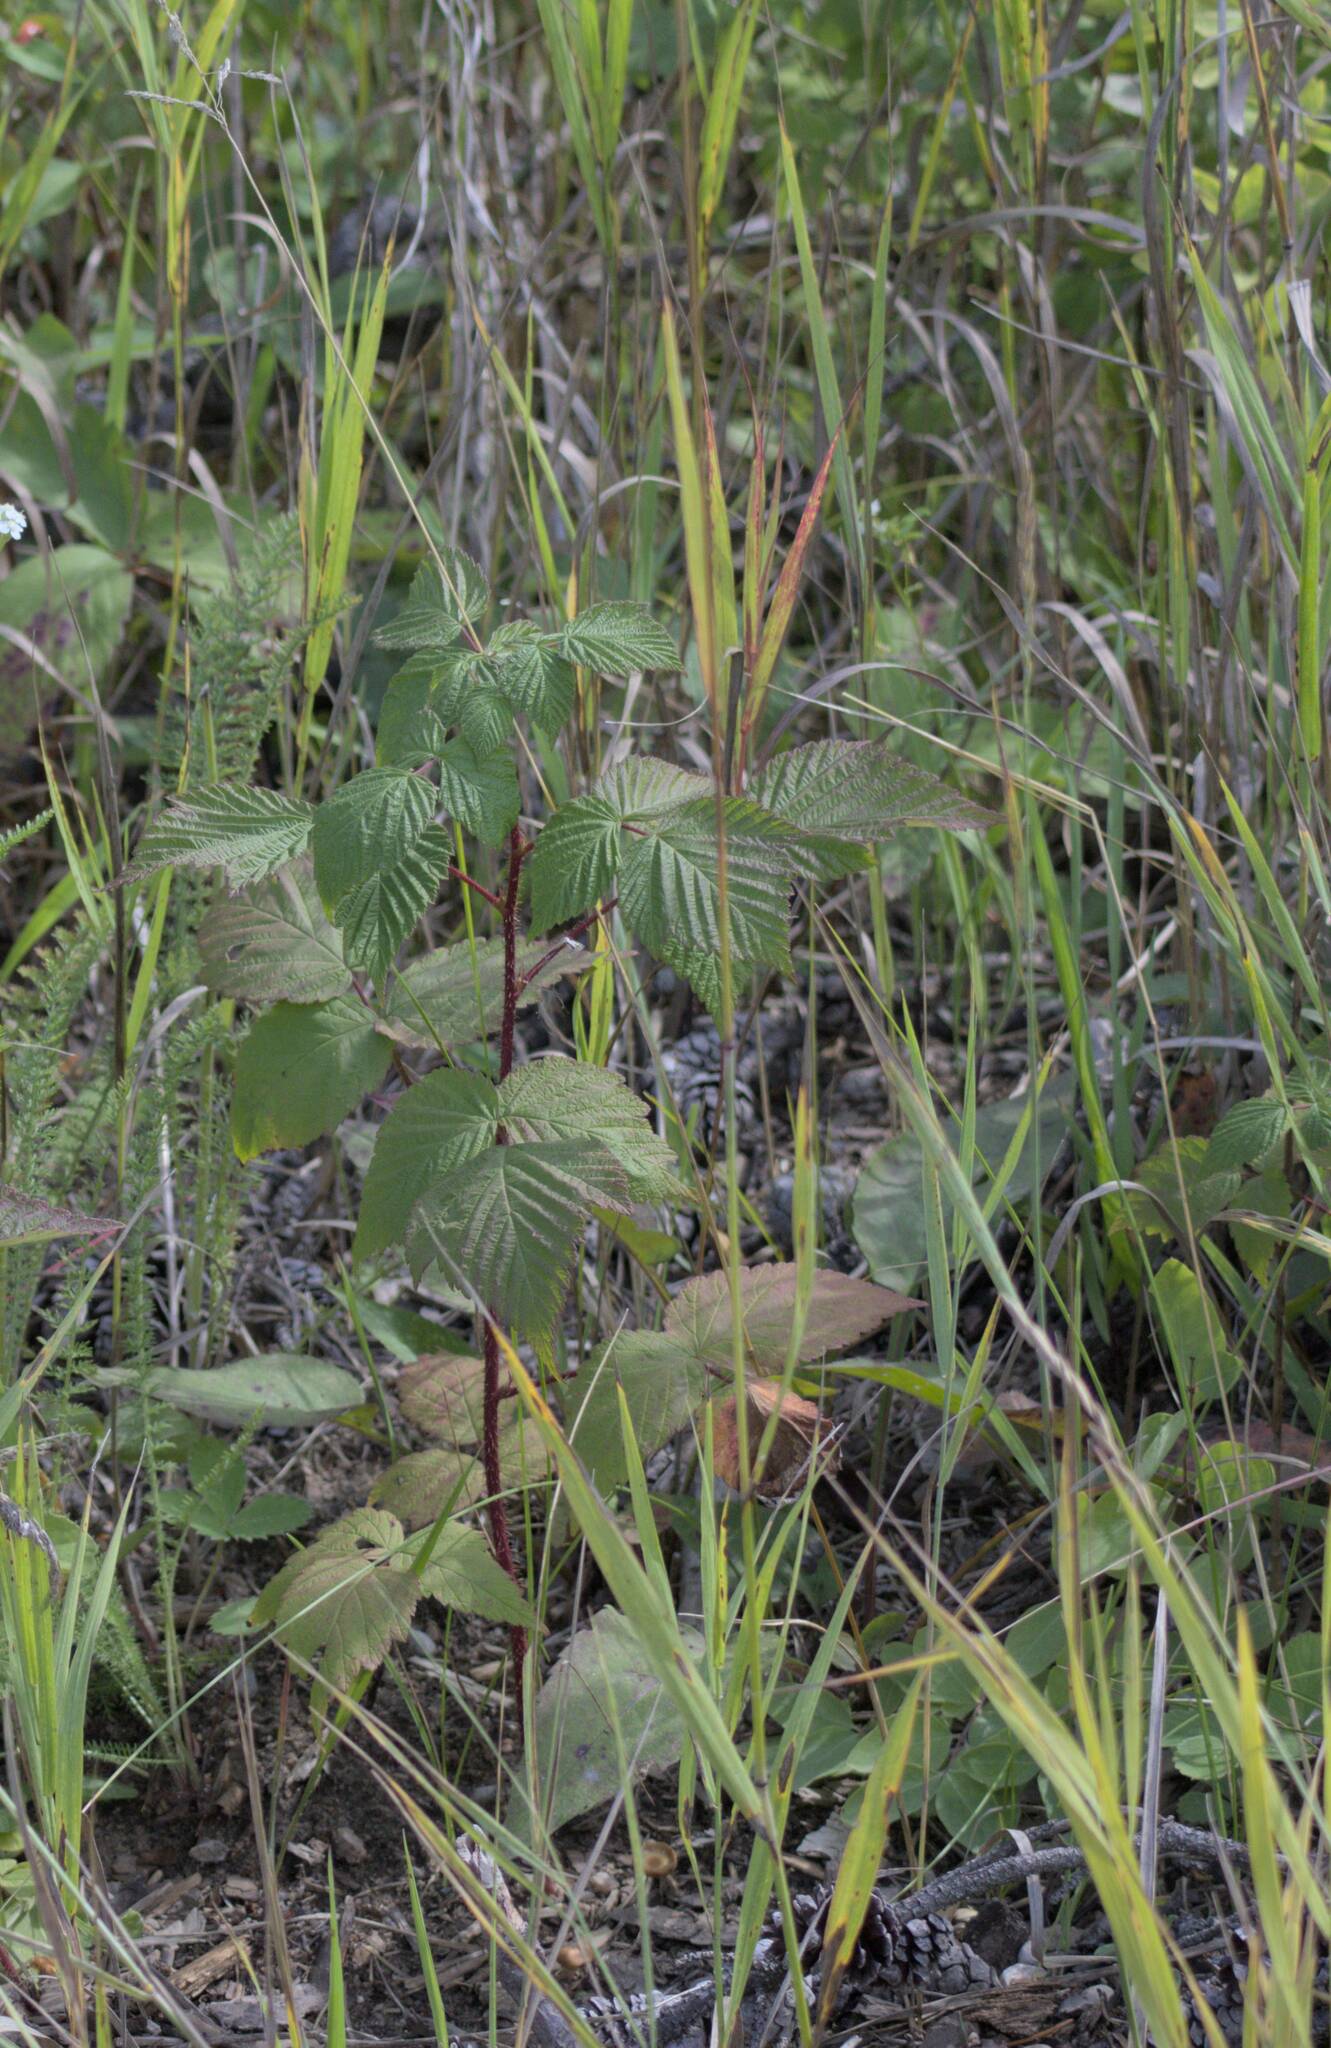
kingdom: Plantae
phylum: Tracheophyta
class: Magnoliopsida
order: Rosales
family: Rosaceae
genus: Rubus
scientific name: Rubus idaeus
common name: Raspberry
